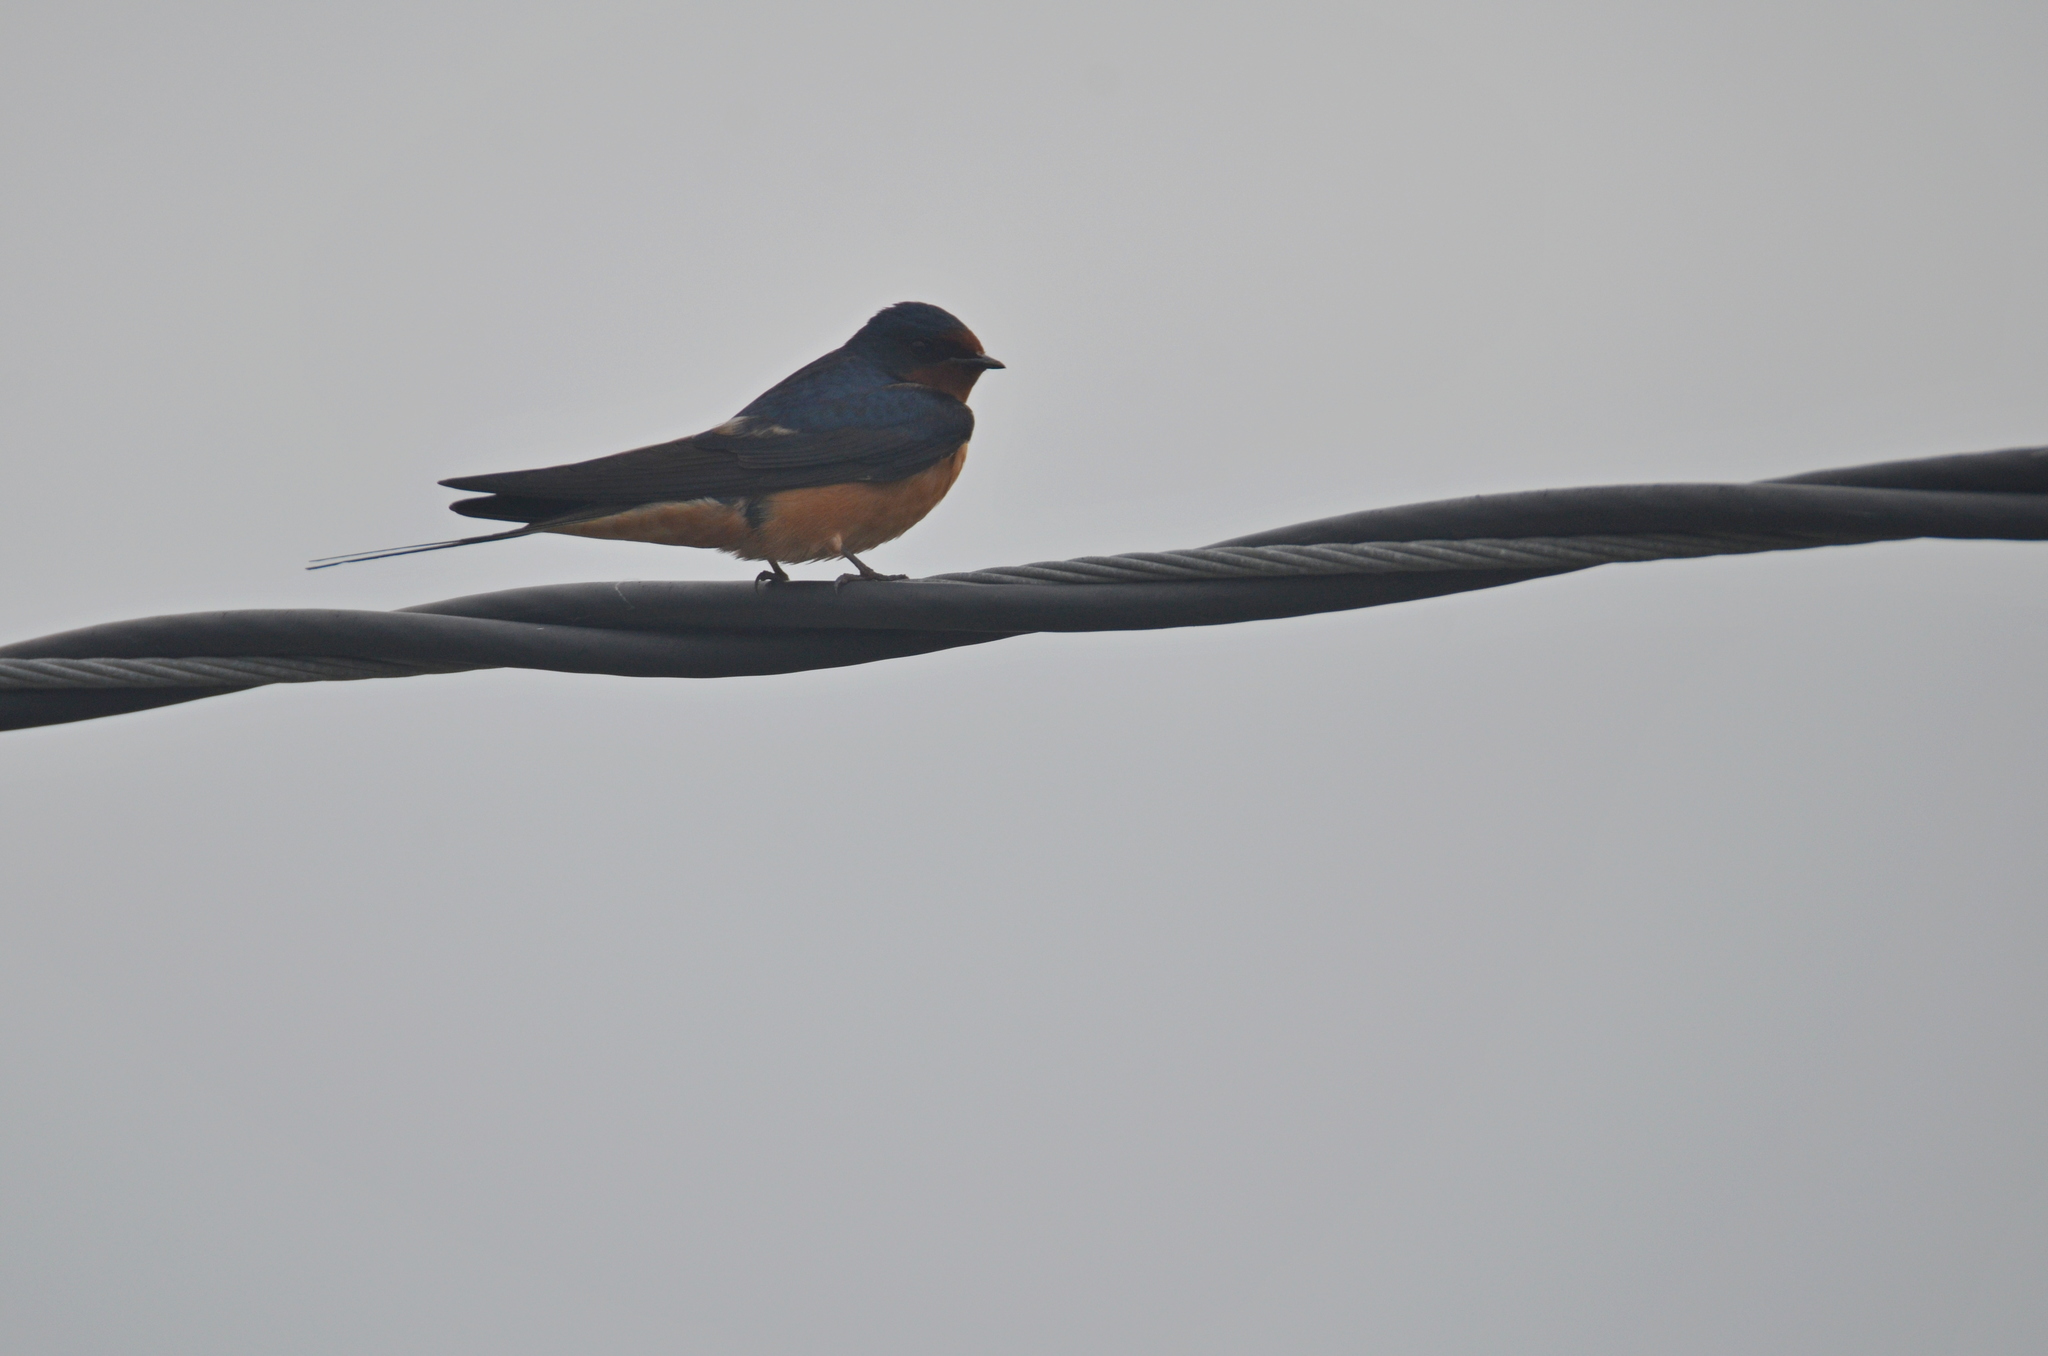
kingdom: Animalia
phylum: Chordata
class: Aves
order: Passeriformes
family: Hirundinidae
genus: Hirundo
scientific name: Hirundo rustica
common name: Barn swallow
